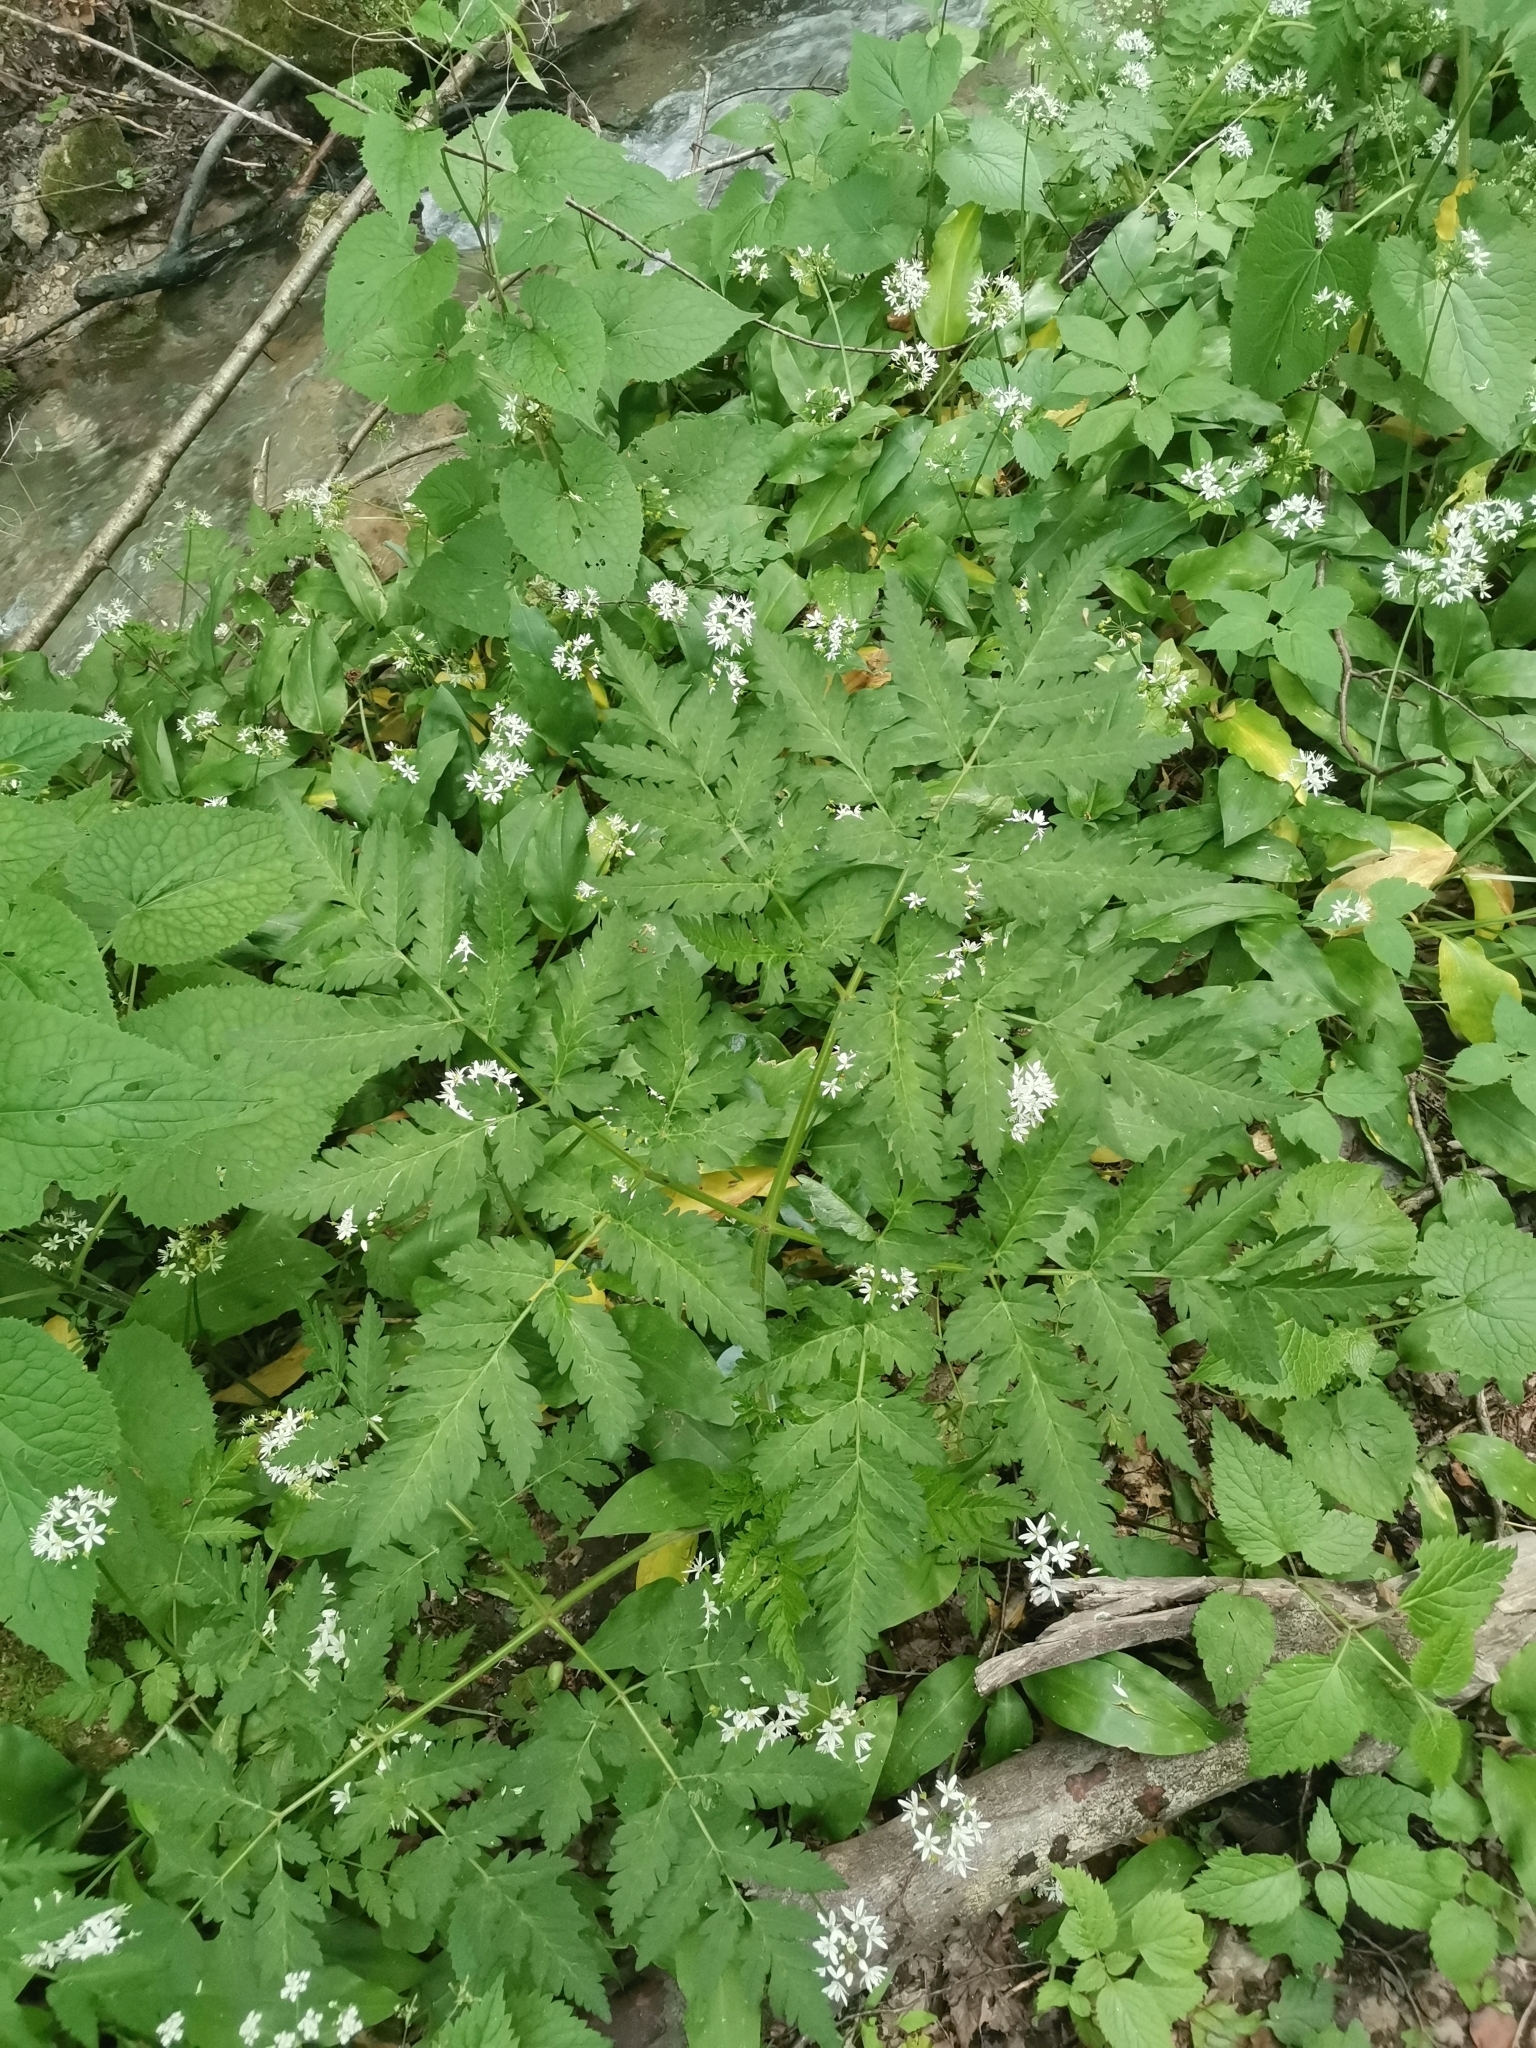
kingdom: Plantae
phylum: Tracheophyta
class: Magnoliopsida
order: Apiales
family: Apiaceae
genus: Anthriscus
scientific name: Anthriscus nitida
